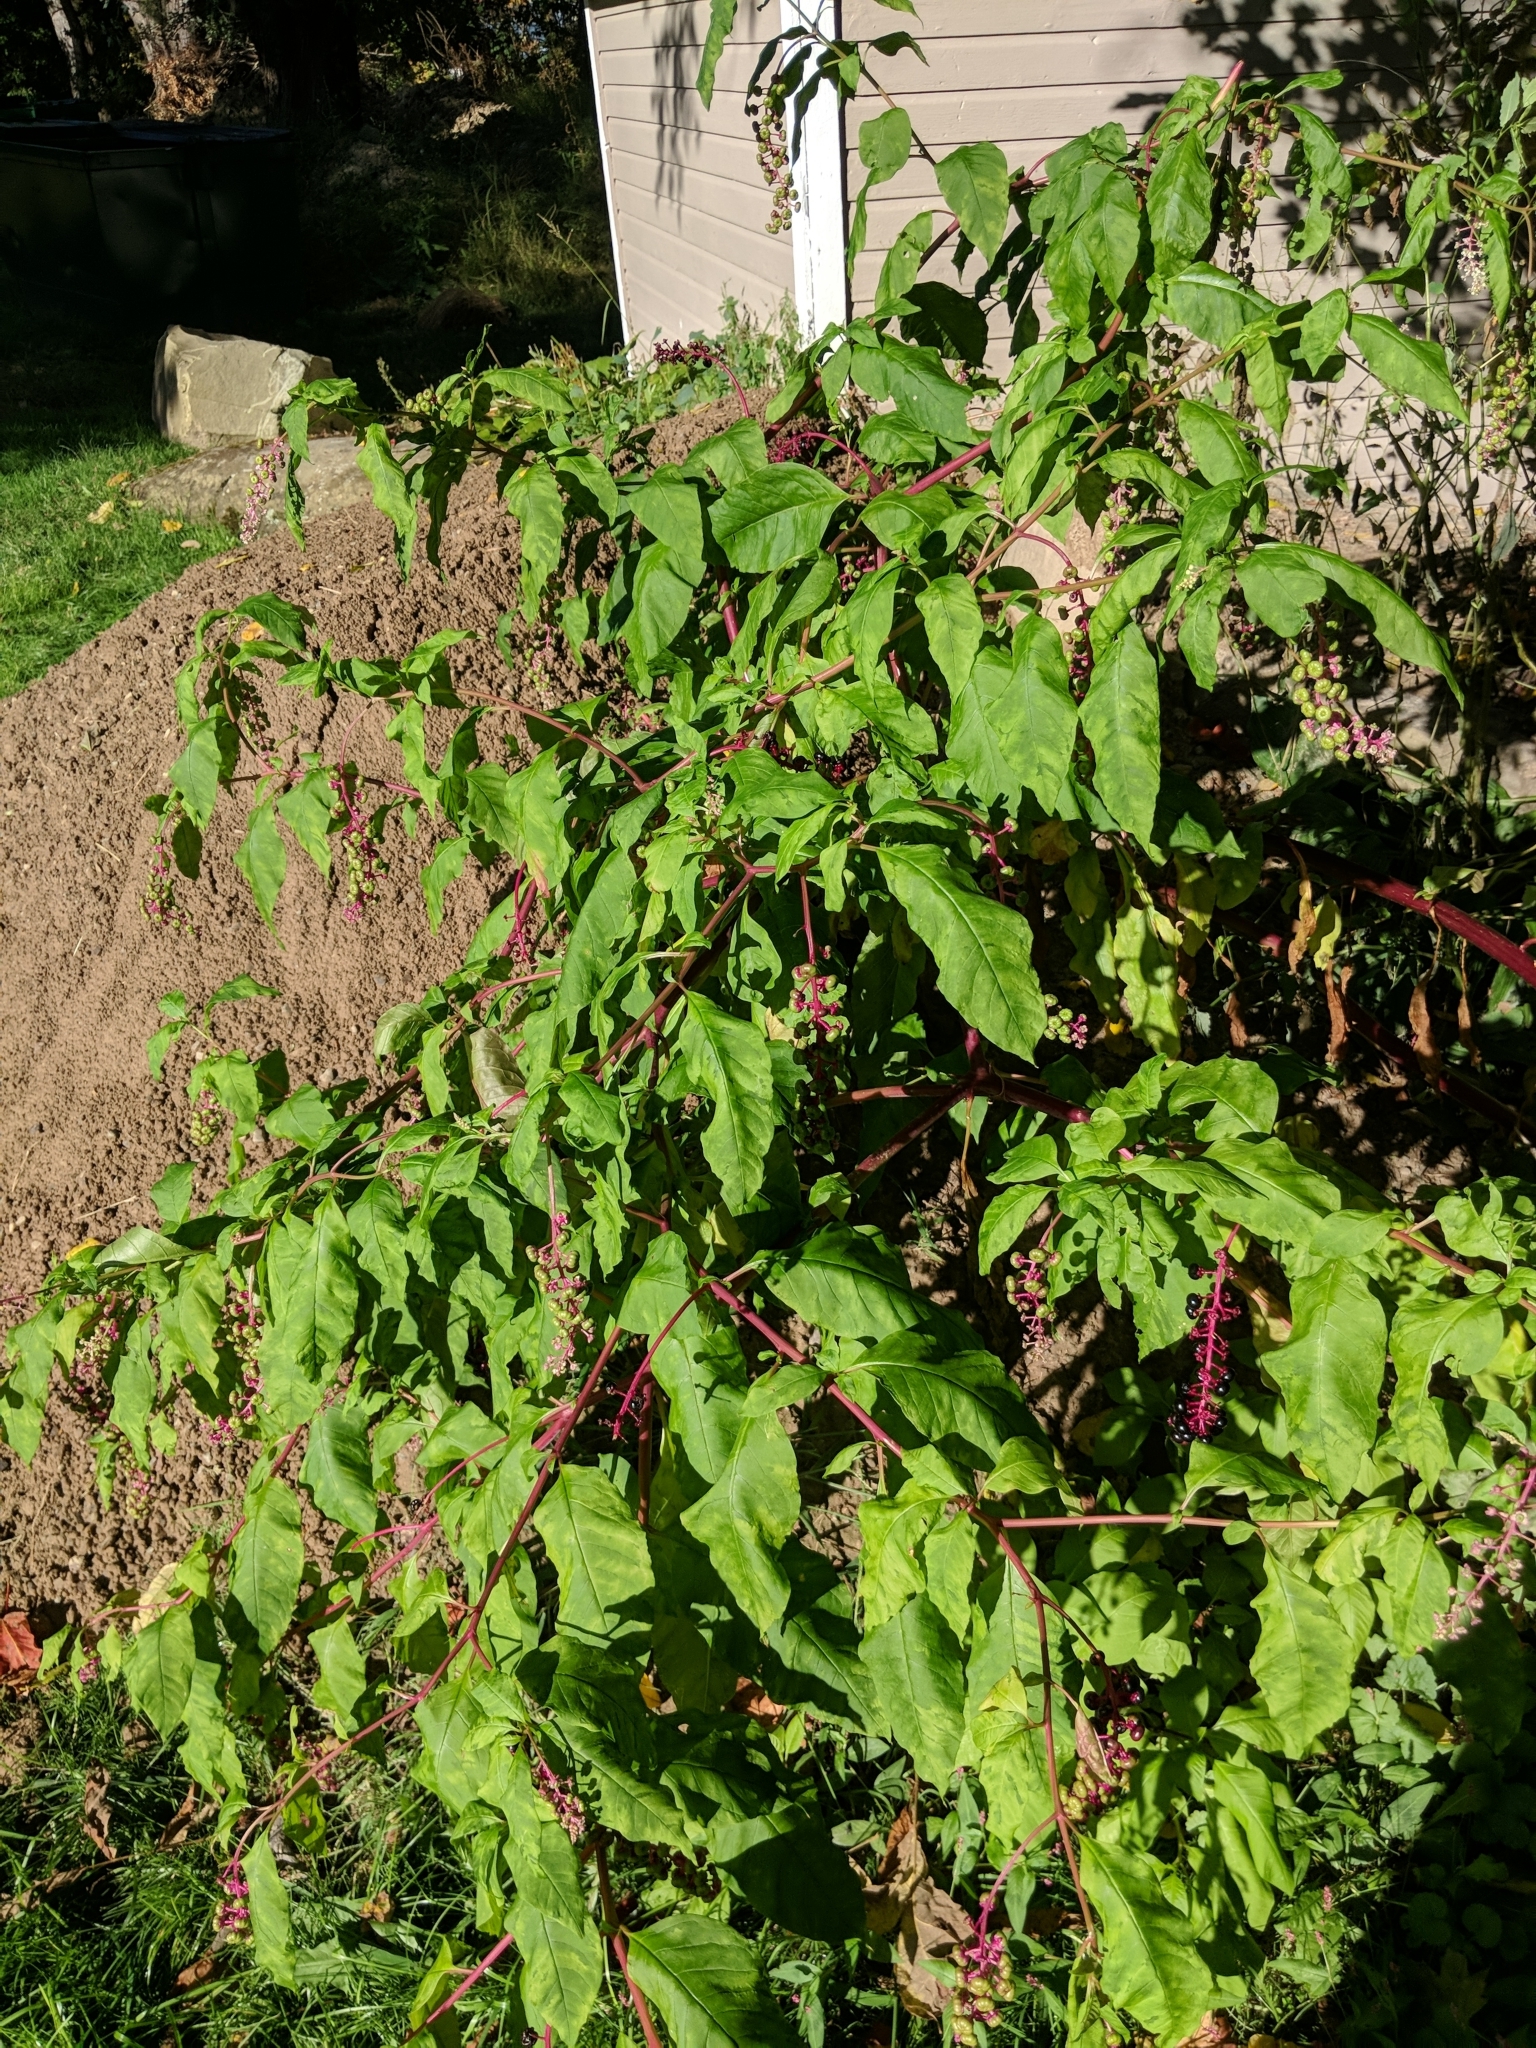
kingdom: Plantae
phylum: Tracheophyta
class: Magnoliopsida
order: Caryophyllales
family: Phytolaccaceae
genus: Phytolacca
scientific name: Phytolacca americana
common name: American pokeweed
